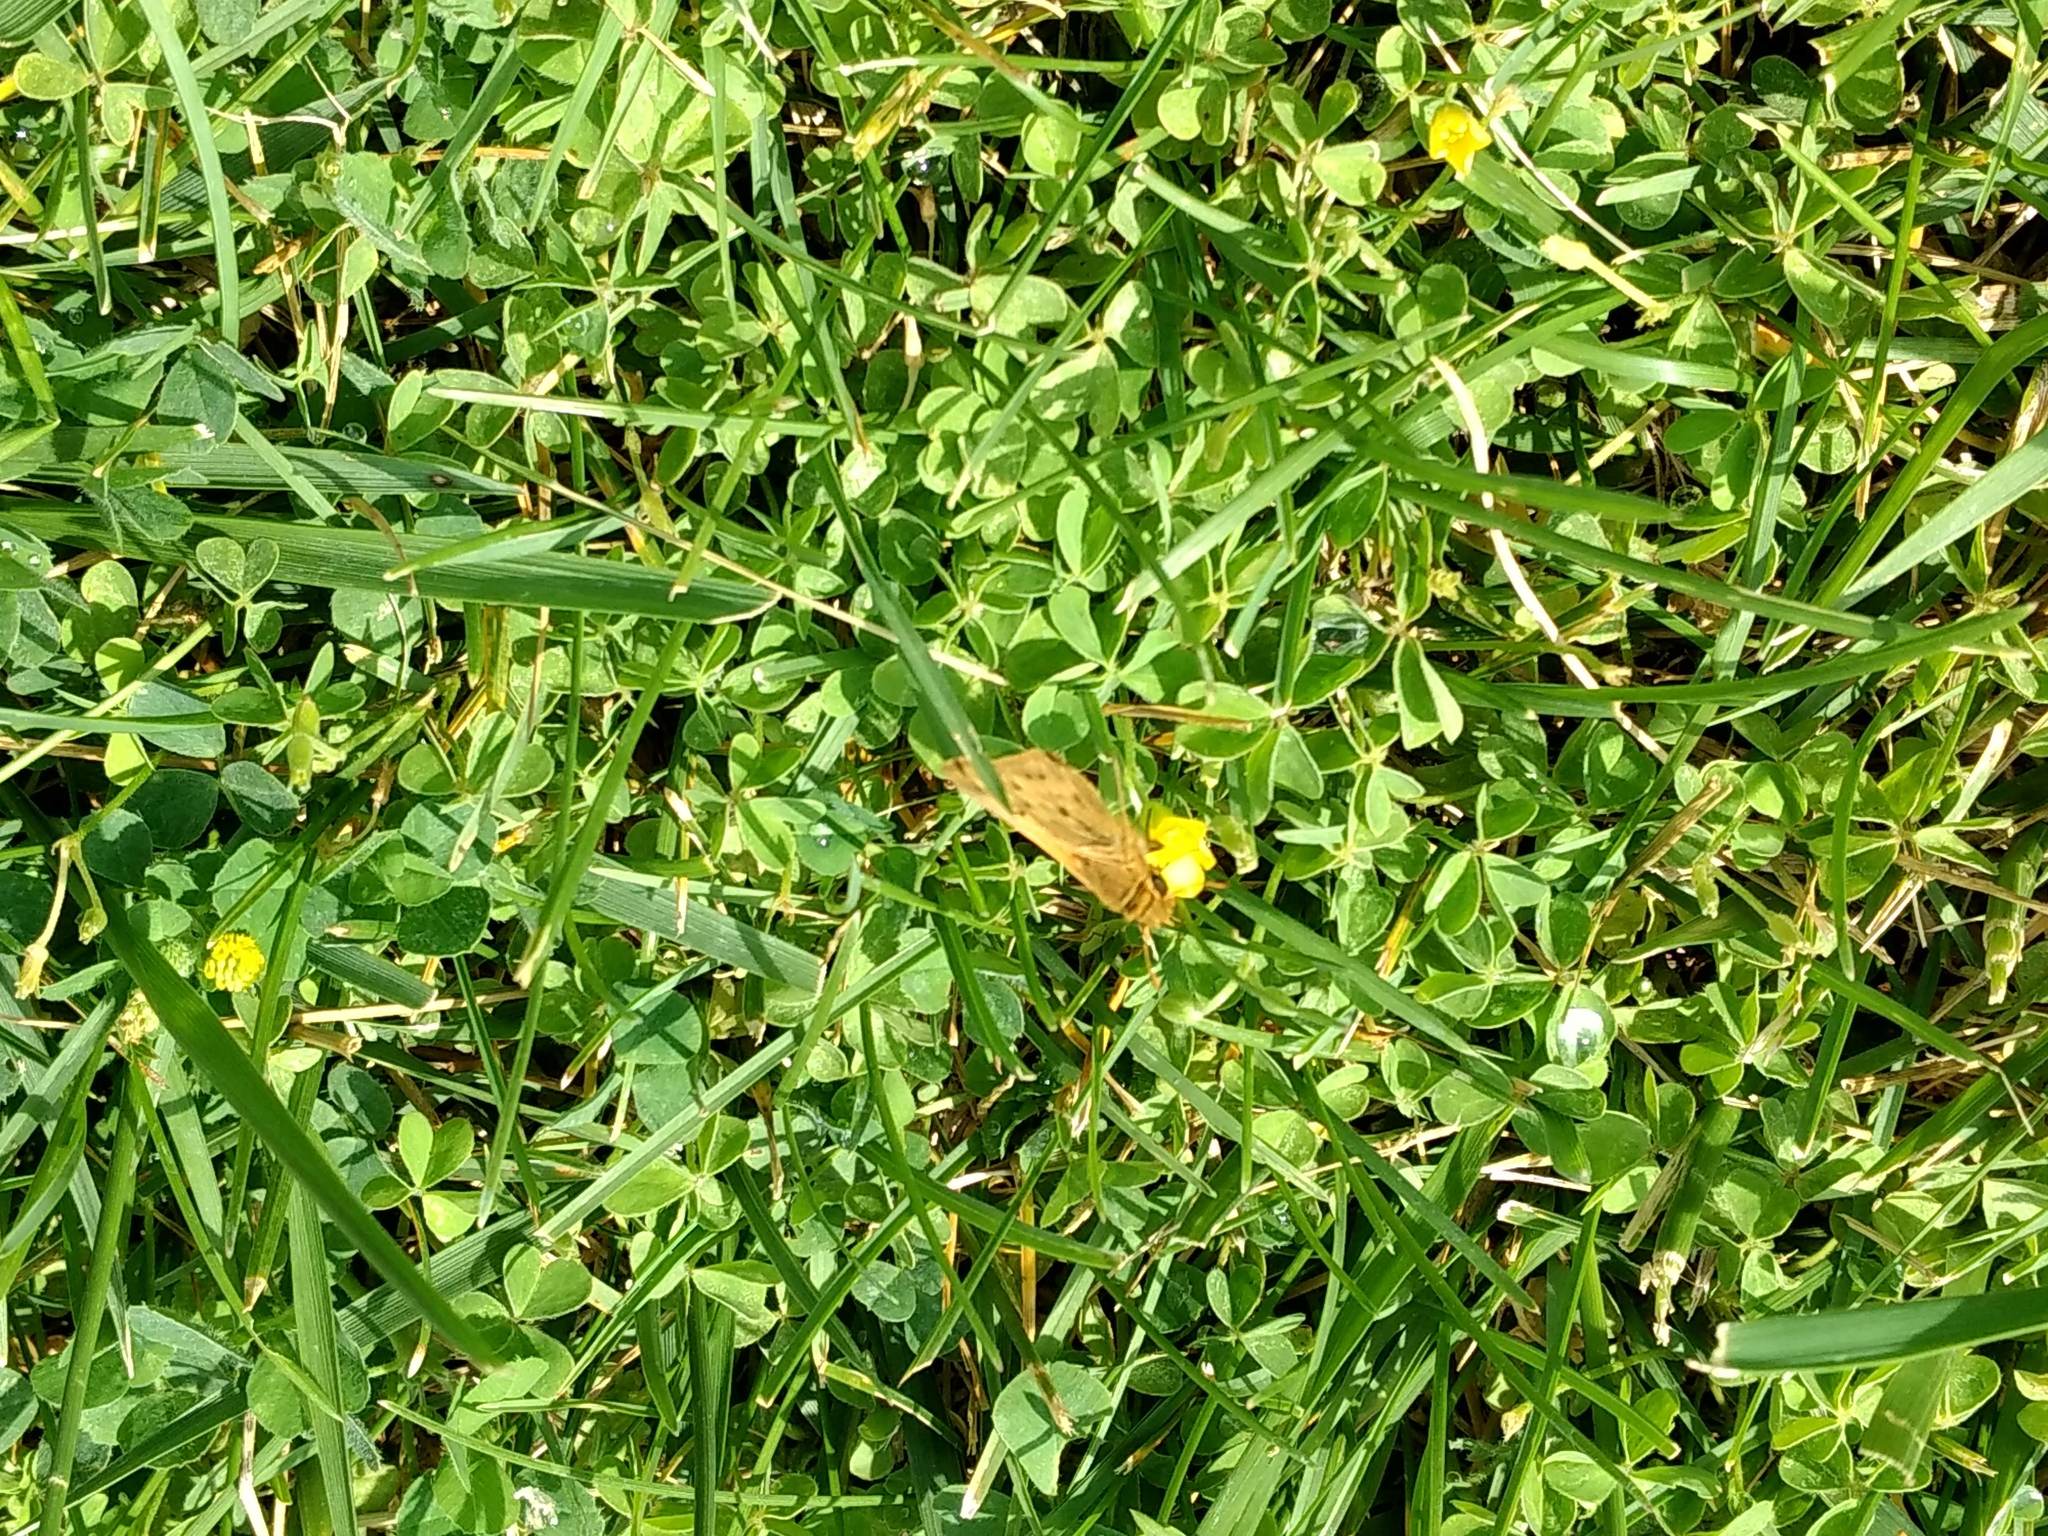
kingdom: Animalia
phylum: Arthropoda
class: Insecta
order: Lepidoptera
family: Hesperiidae
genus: Hylephila
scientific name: Hylephila phyleus
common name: Fiery skipper
